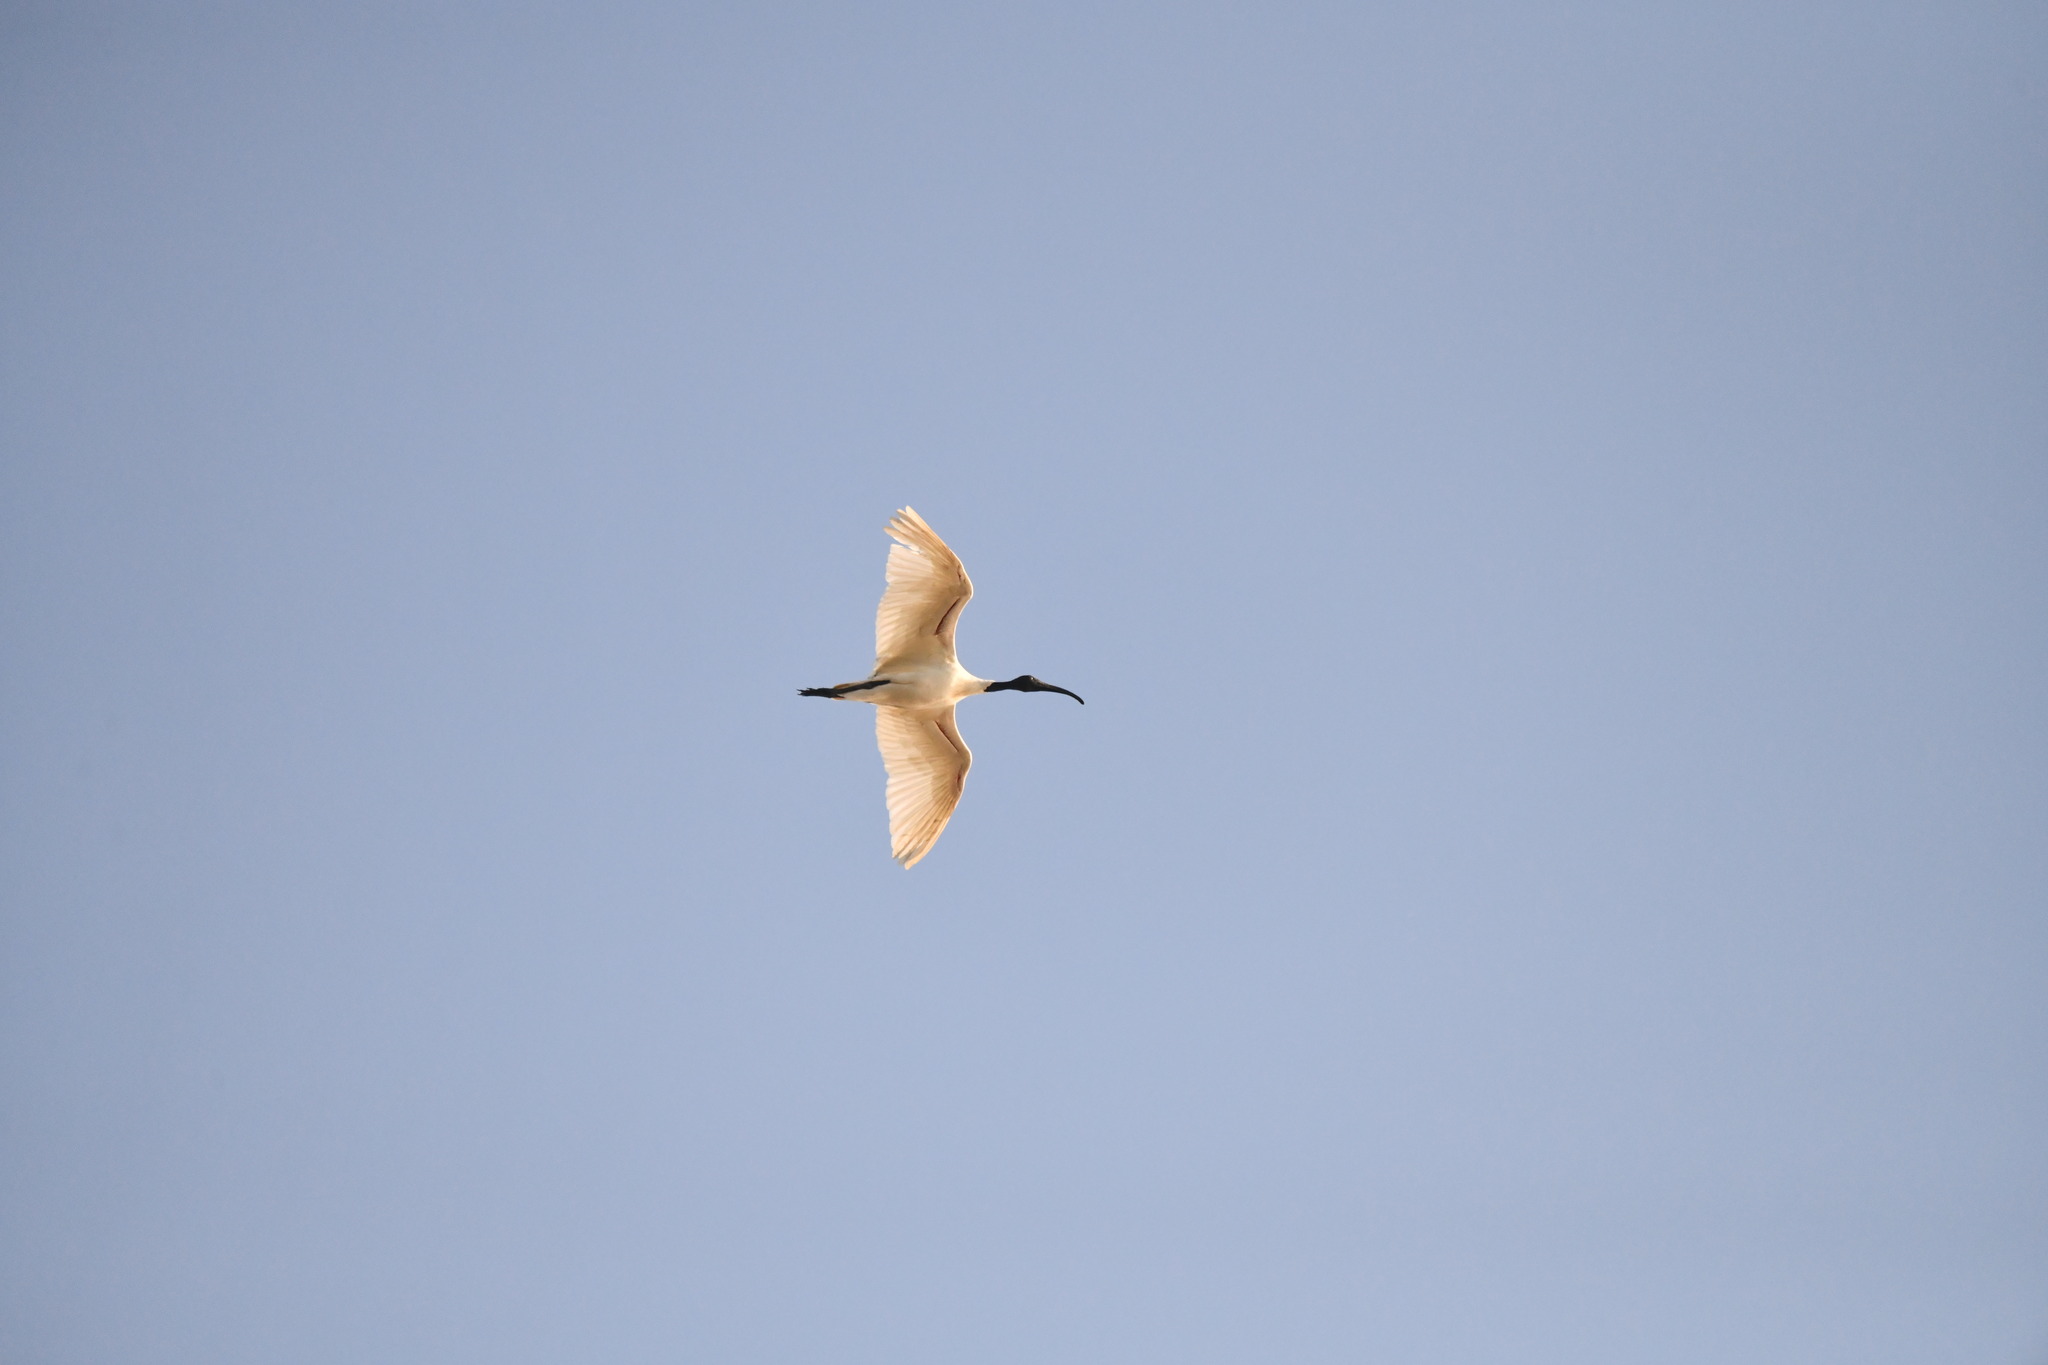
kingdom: Animalia
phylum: Chordata
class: Aves
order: Pelecaniformes
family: Threskiornithidae
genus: Threskiornis
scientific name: Threskiornis melanocephalus
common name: Black-headed ibis
